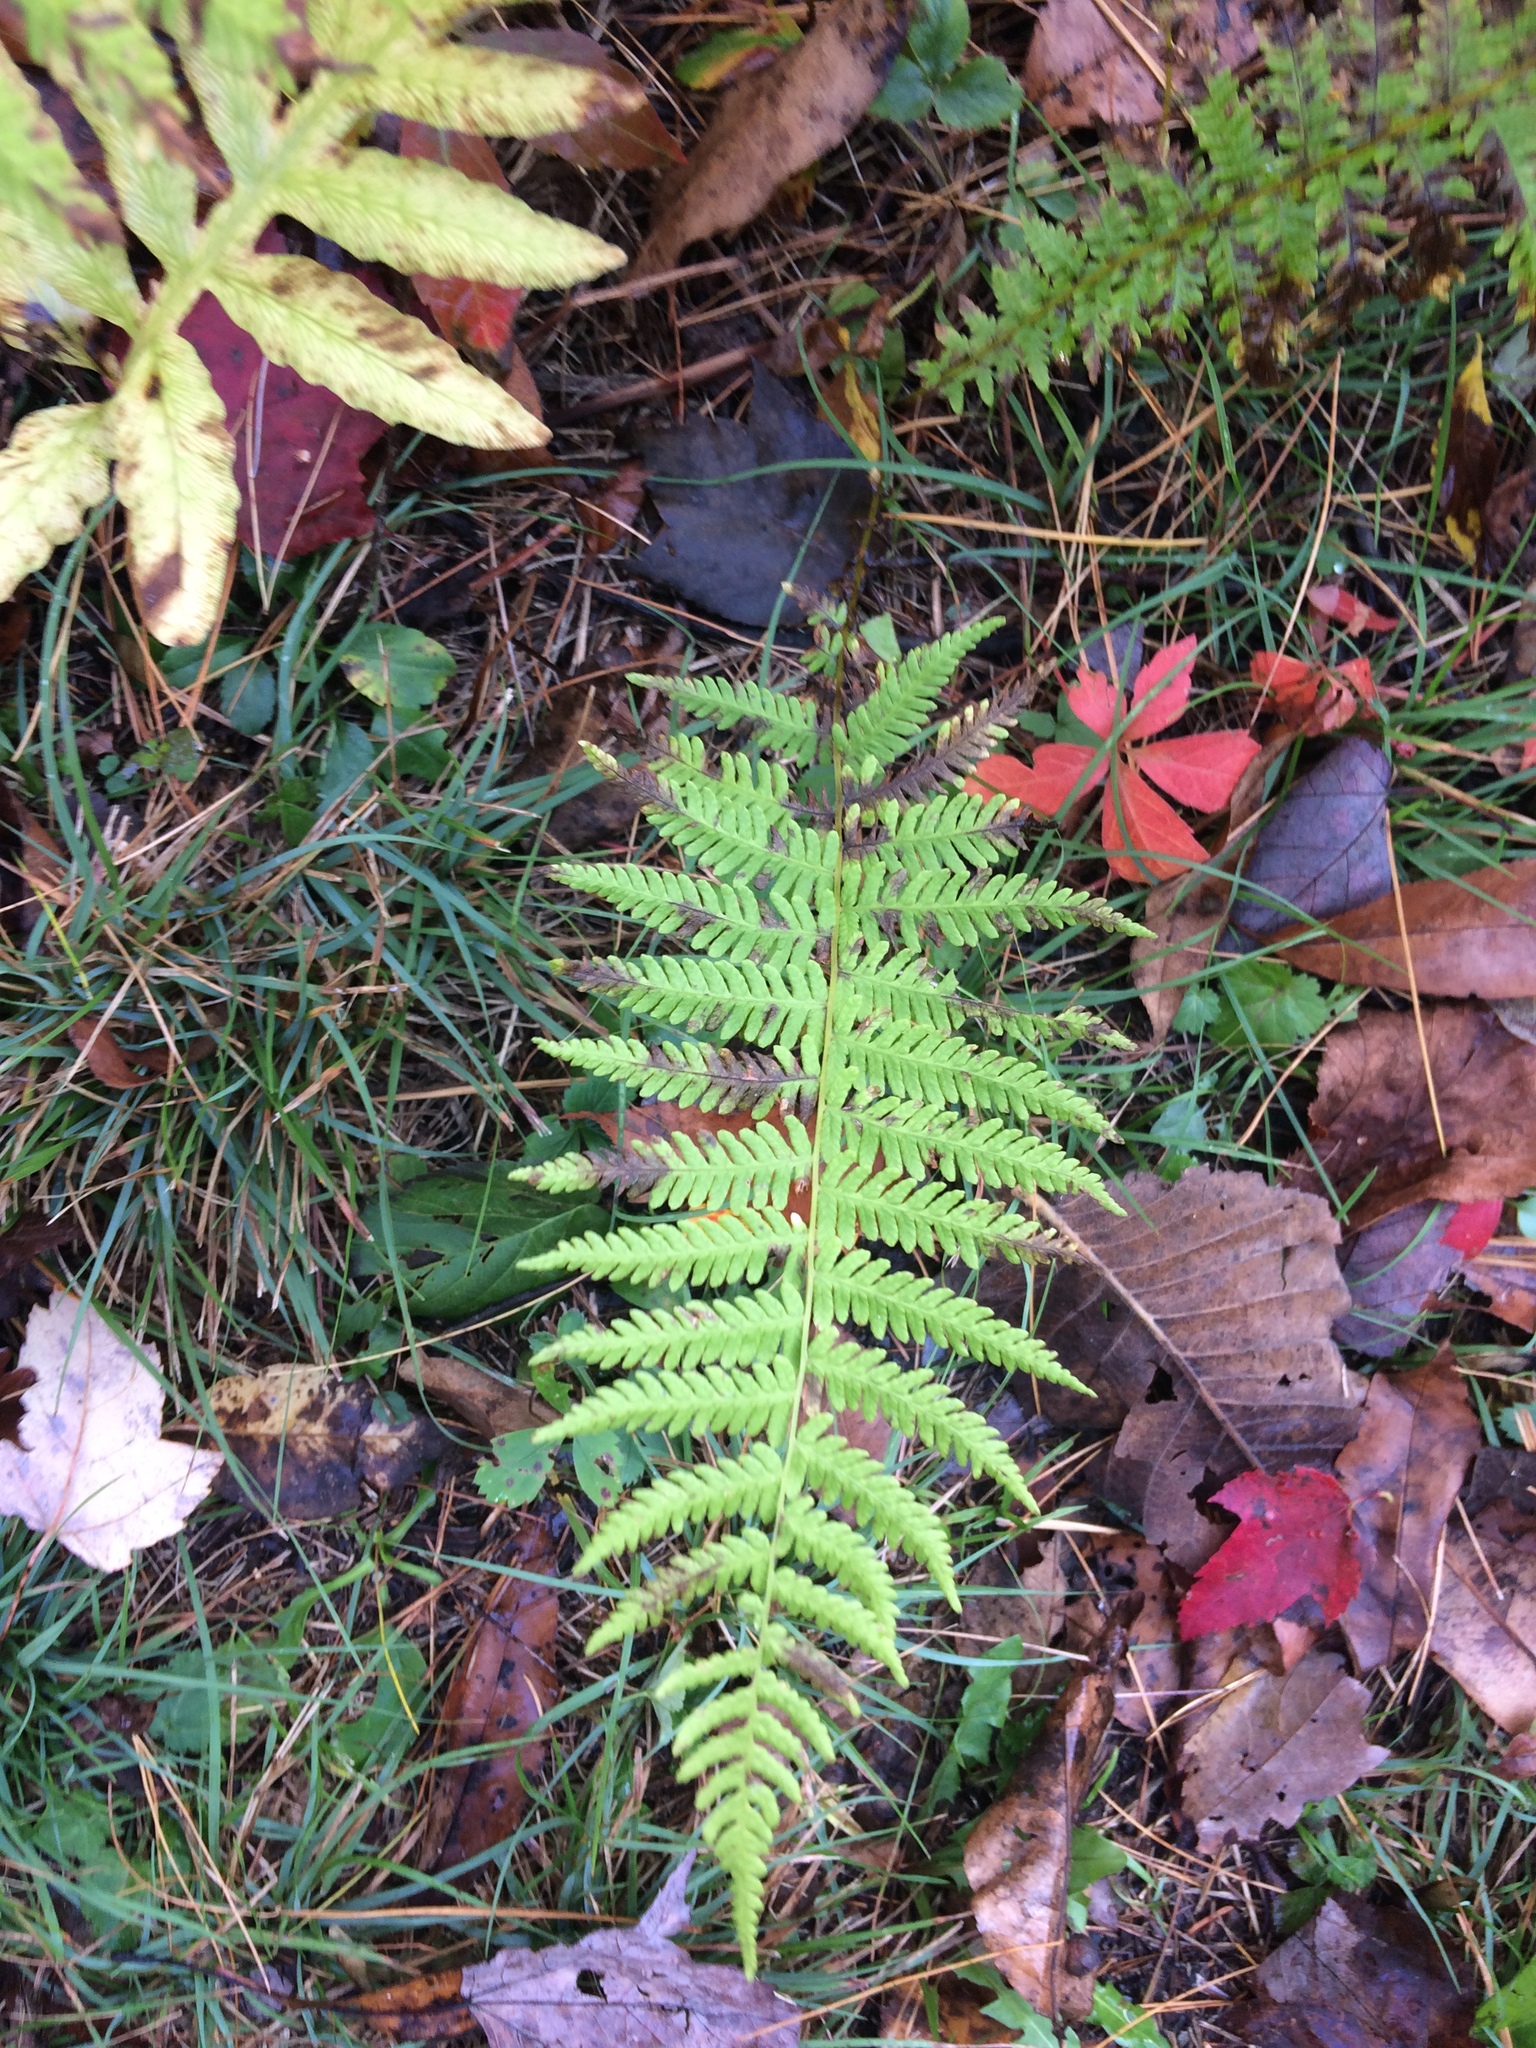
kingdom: Plantae
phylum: Tracheophyta
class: Polypodiopsida
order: Polypodiales
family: Thelypteridaceae
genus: Amauropelta
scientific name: Amauropelta noveboracensis
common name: New york fern
